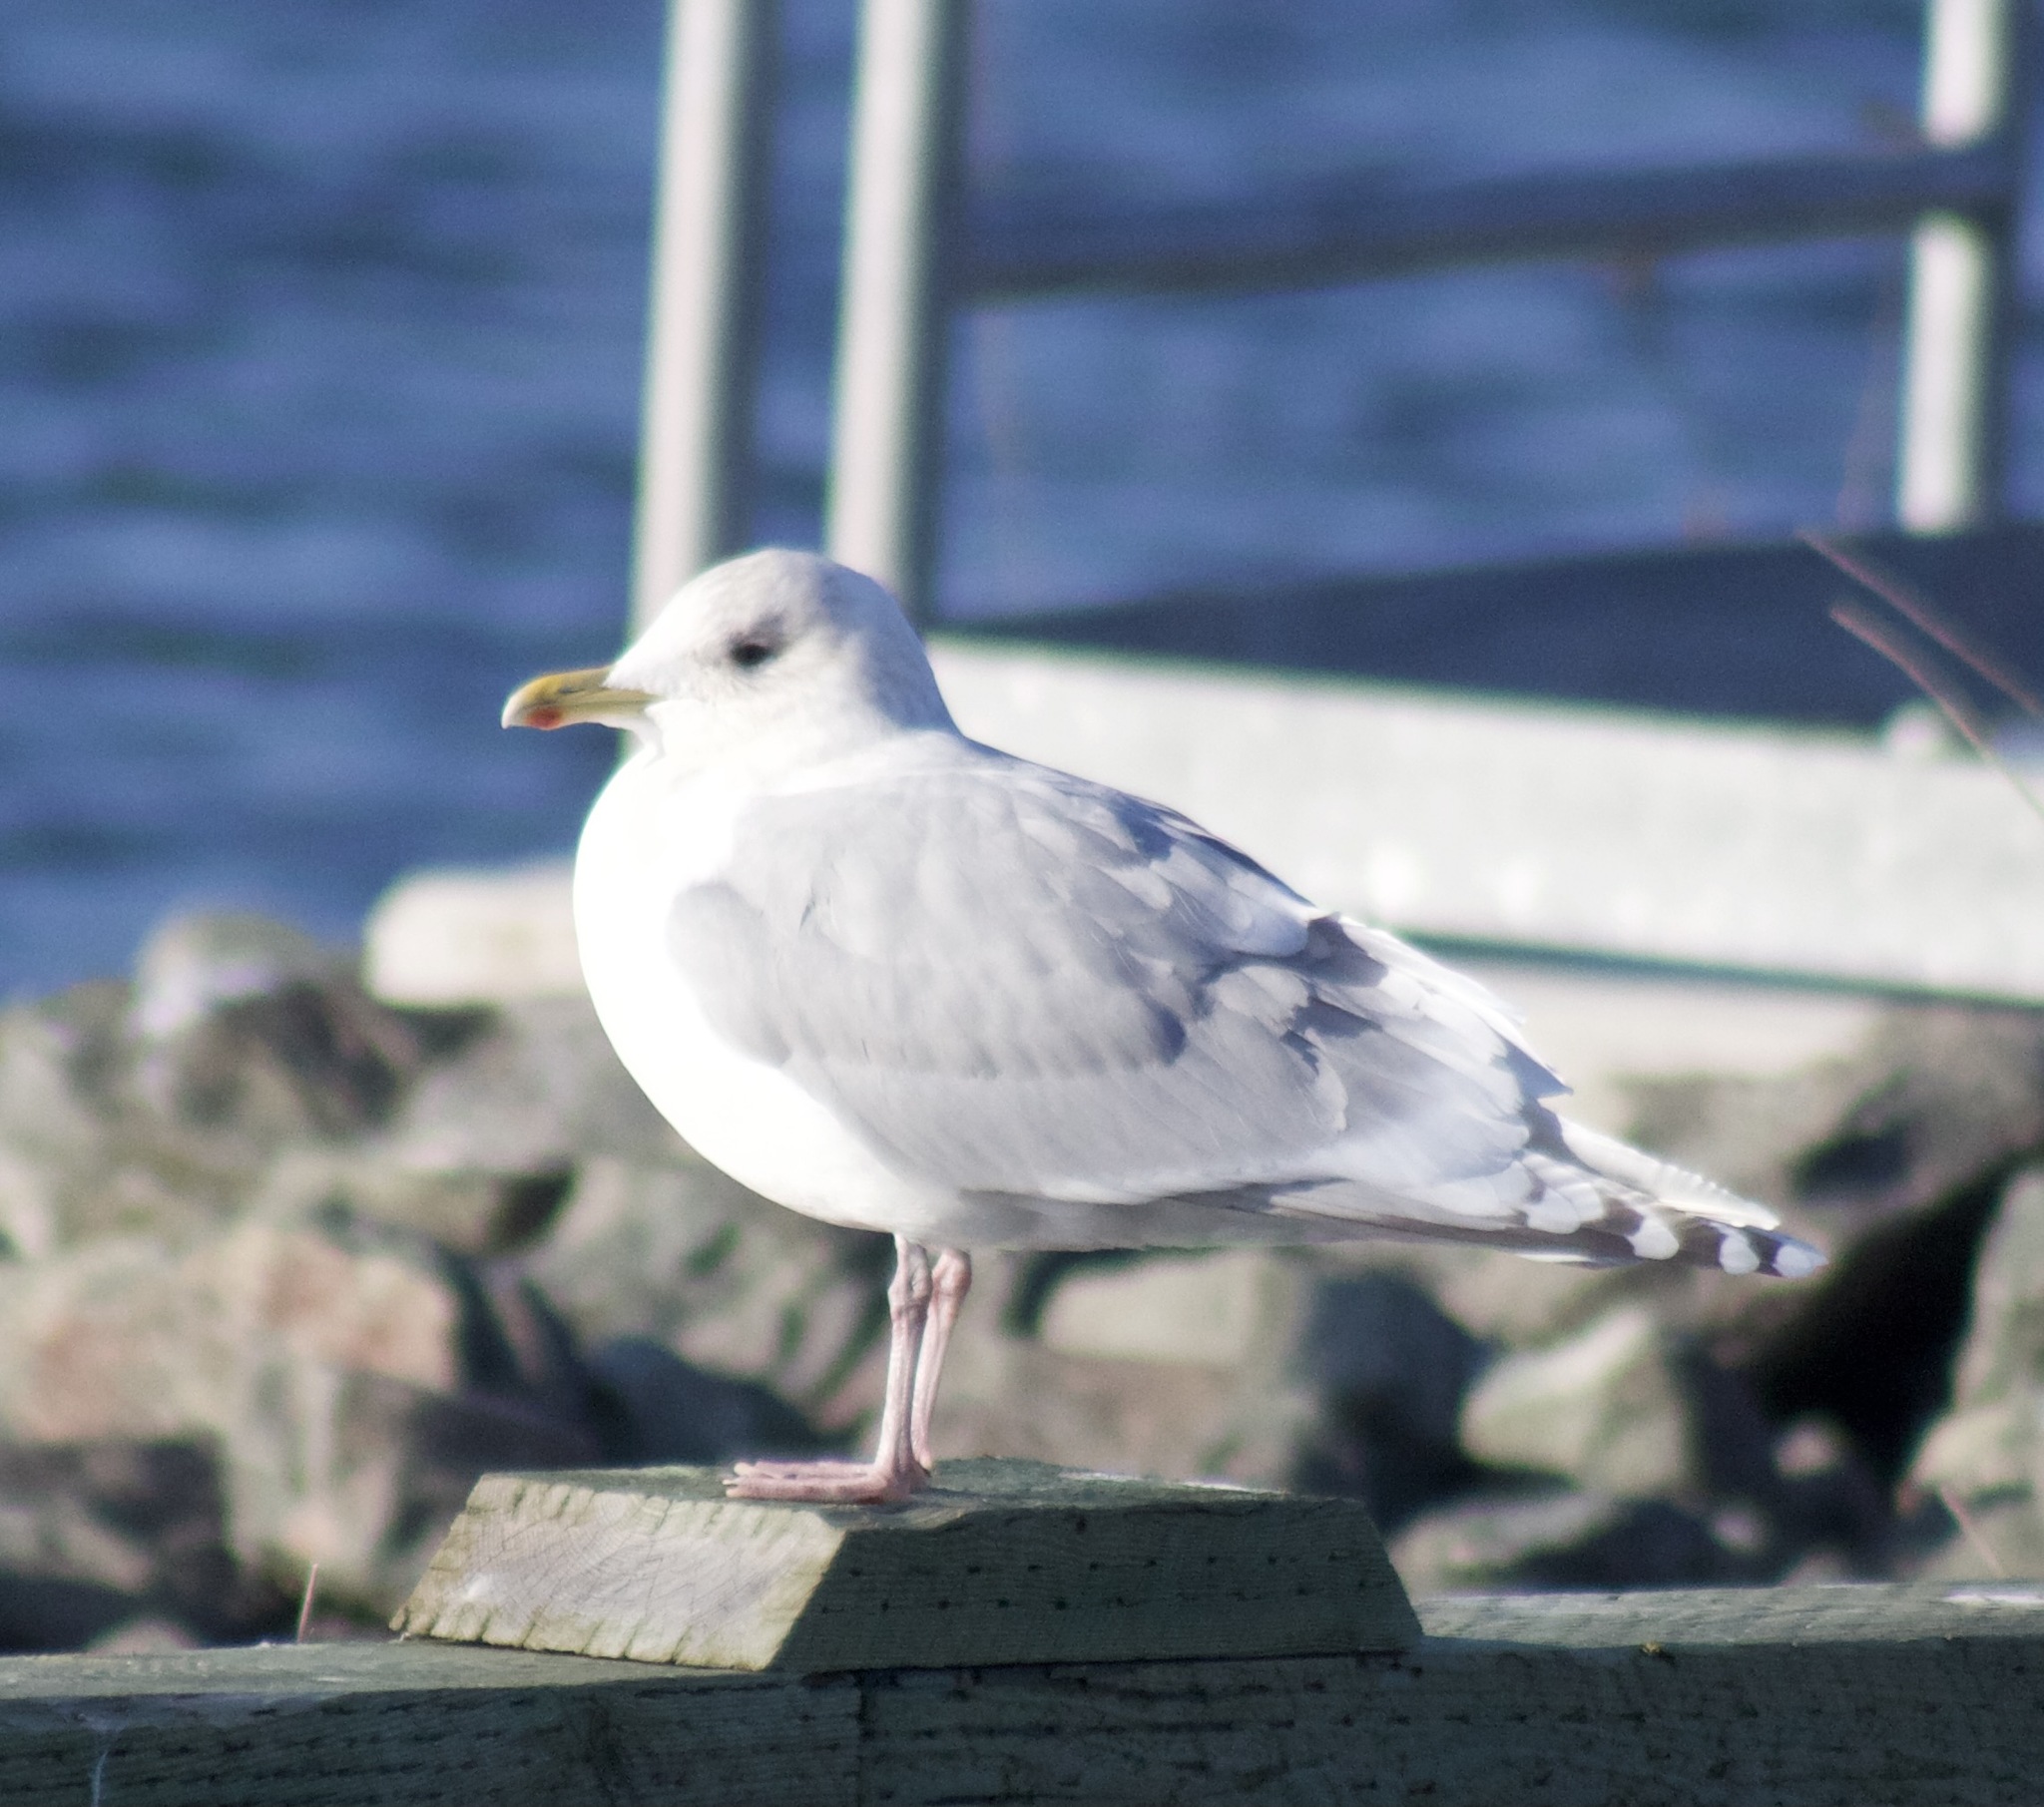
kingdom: Animalia
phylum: Chordata
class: Aves
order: Charadriiformes
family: Laridae
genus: Larus
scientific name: Larus glaucoides
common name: Iceland gull
